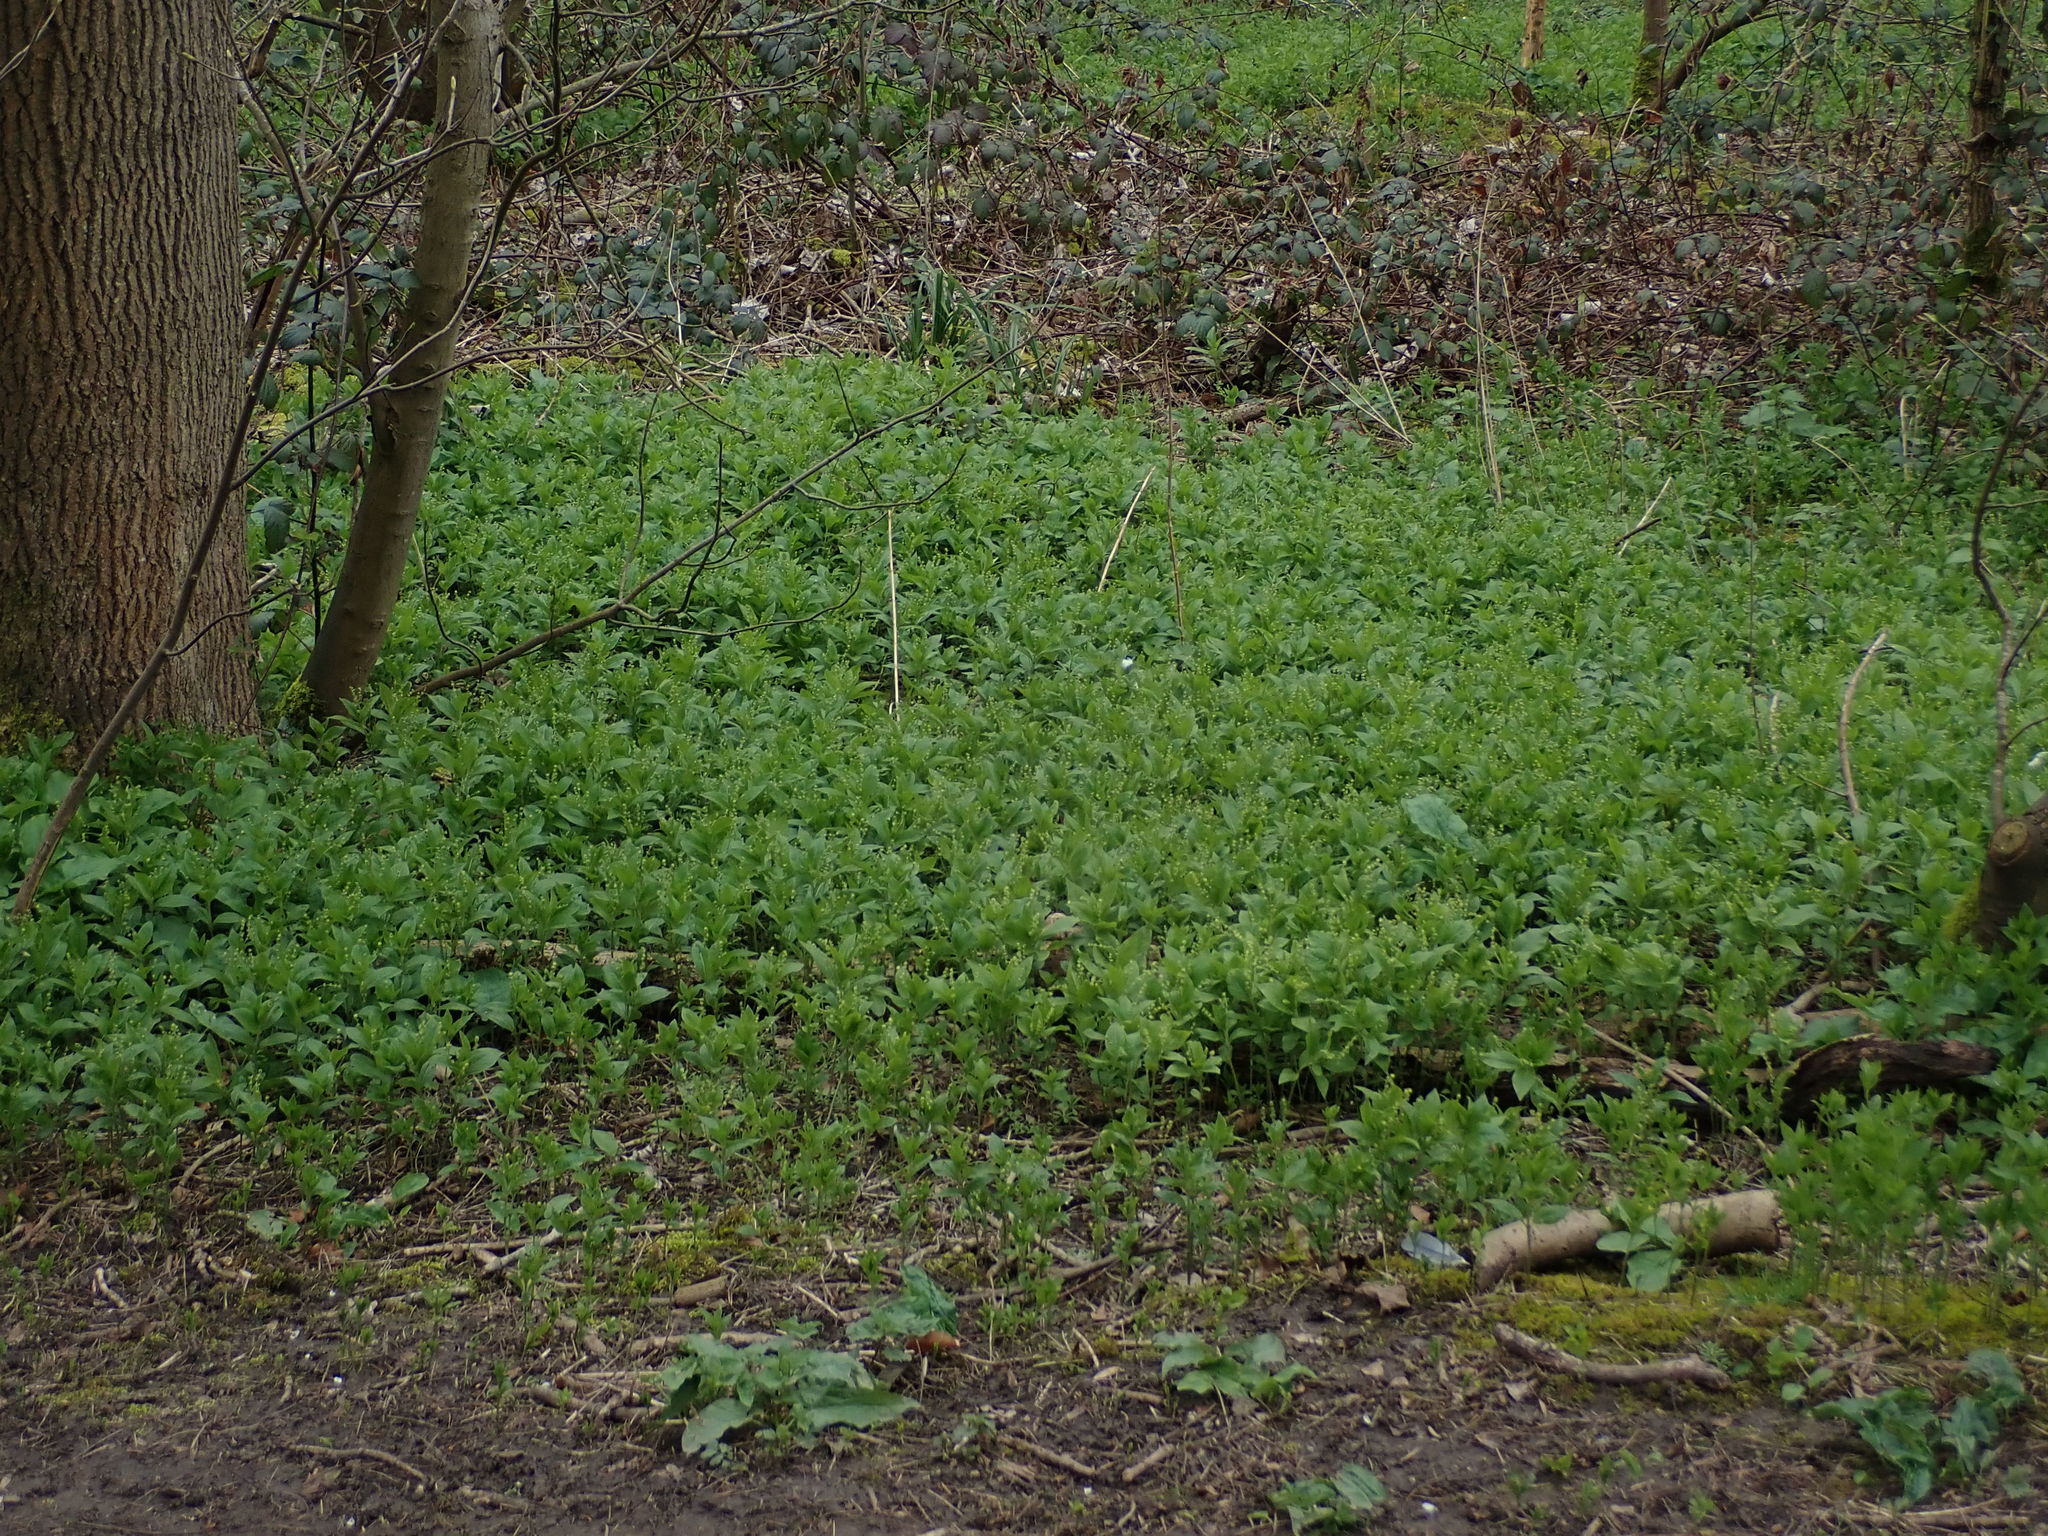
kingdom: Plantae
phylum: Tracheophyta
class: Magnoliopsida
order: Malpighiales
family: Euphorbiaceae
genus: Mercurialis
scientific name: Mercurialis perennis
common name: Dog mercury
